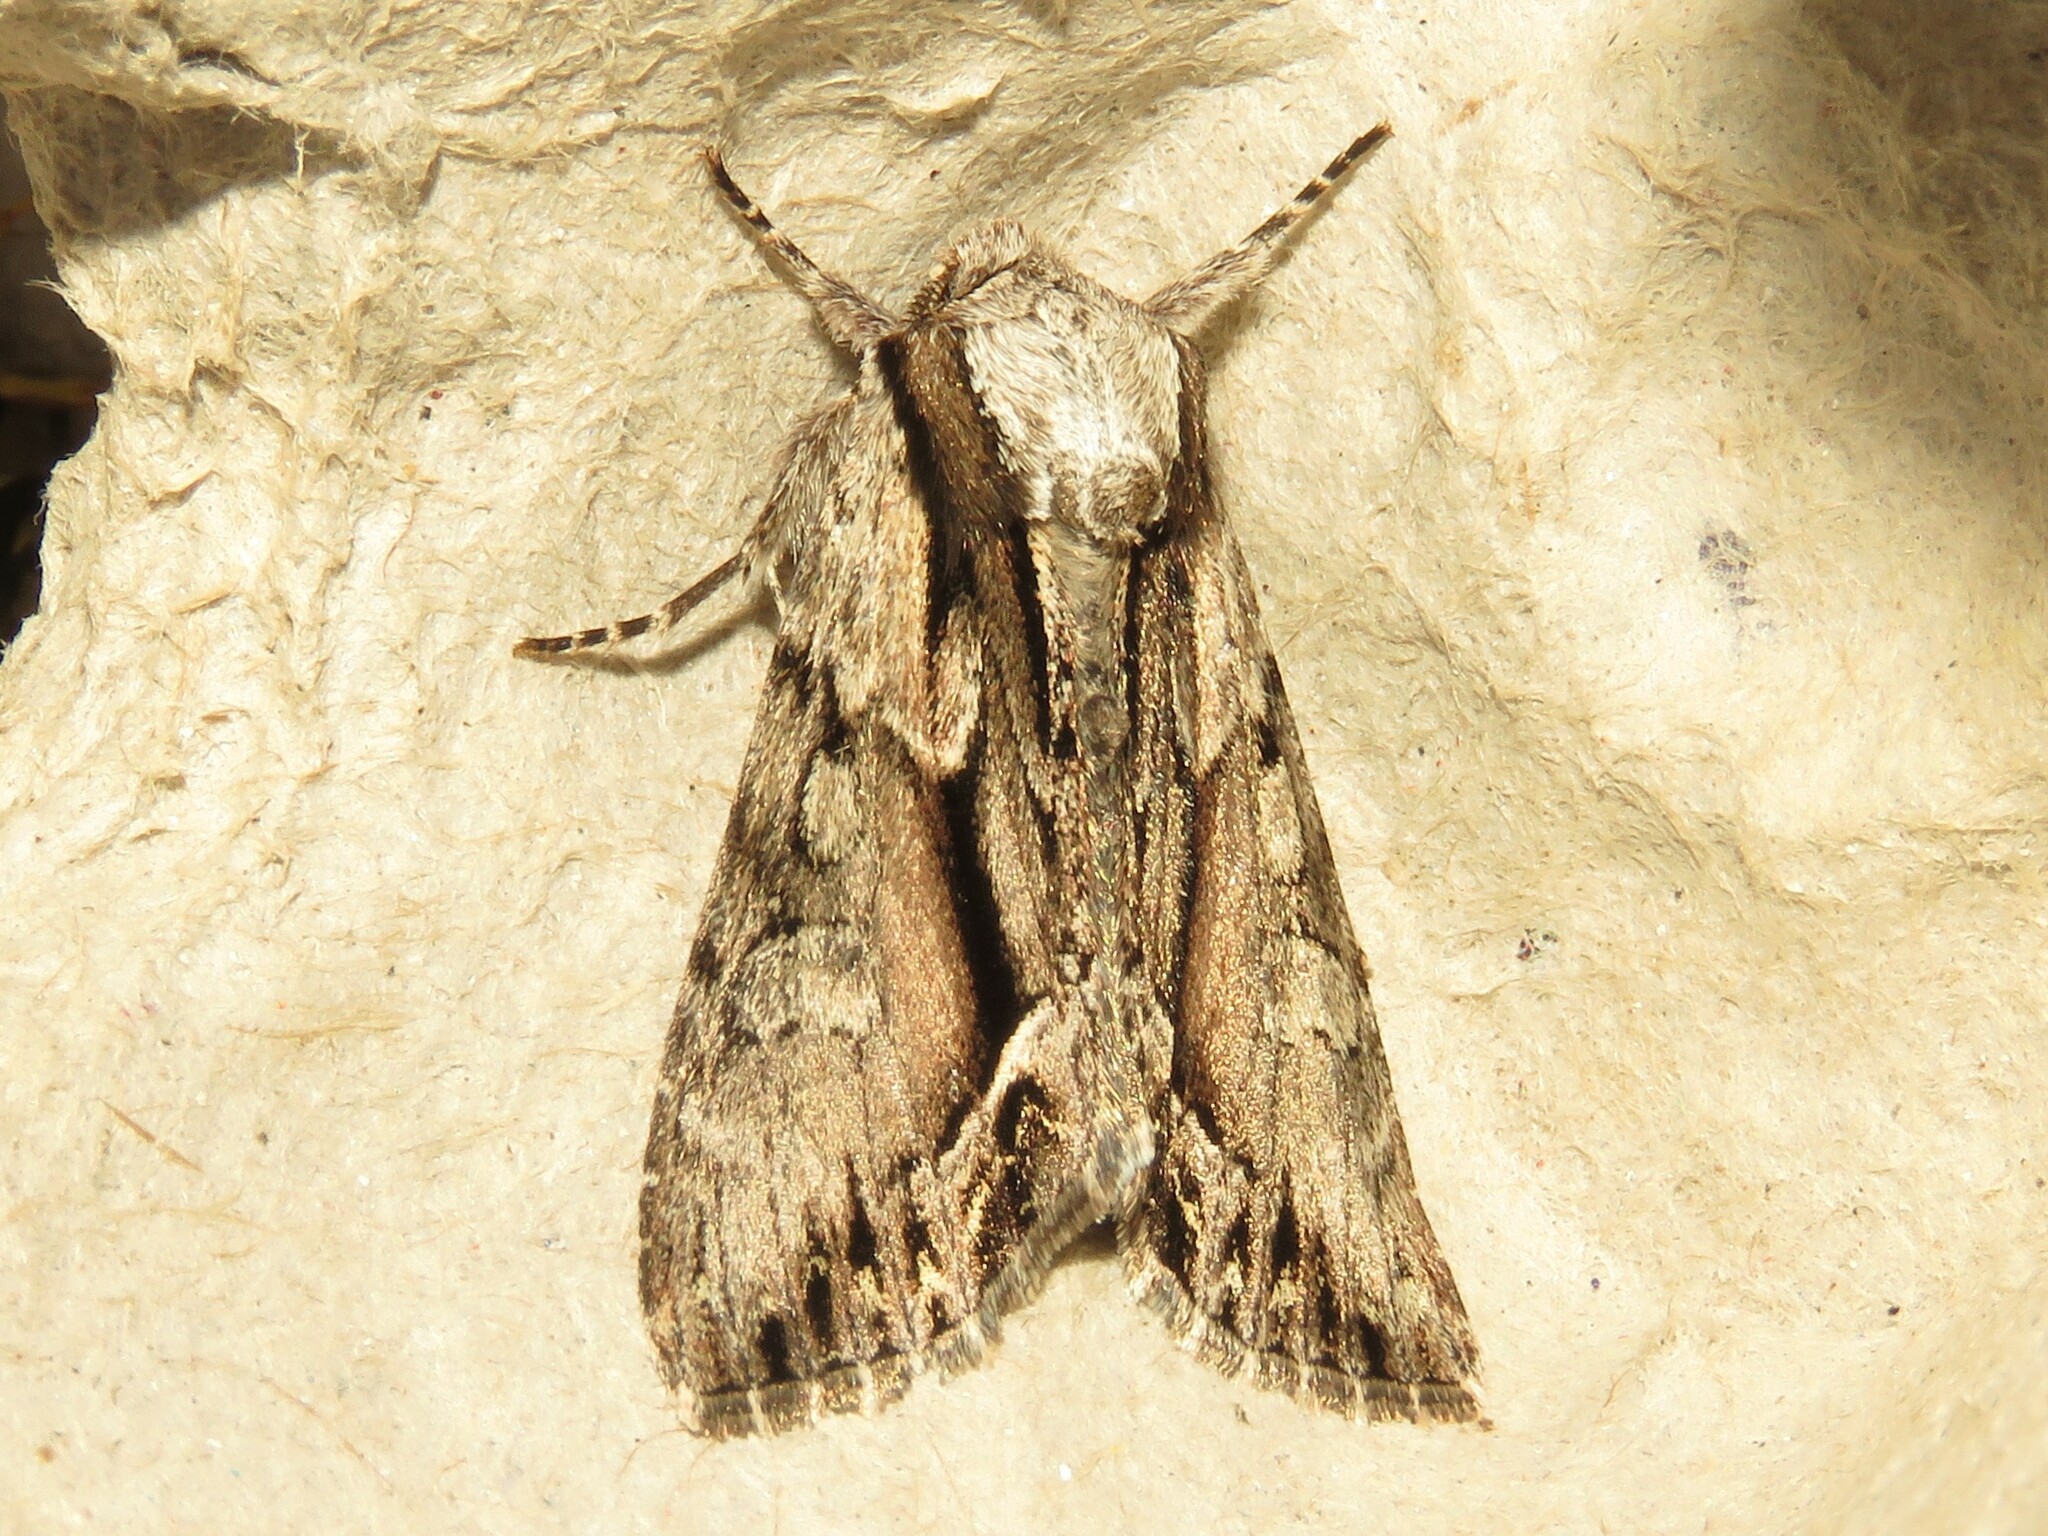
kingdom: Animalia
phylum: Arthropoda
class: Insecta
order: Lepidoptera
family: Noctuidae
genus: Hyppa
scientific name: Hyppa xylinoides
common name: Common hyppa moth
